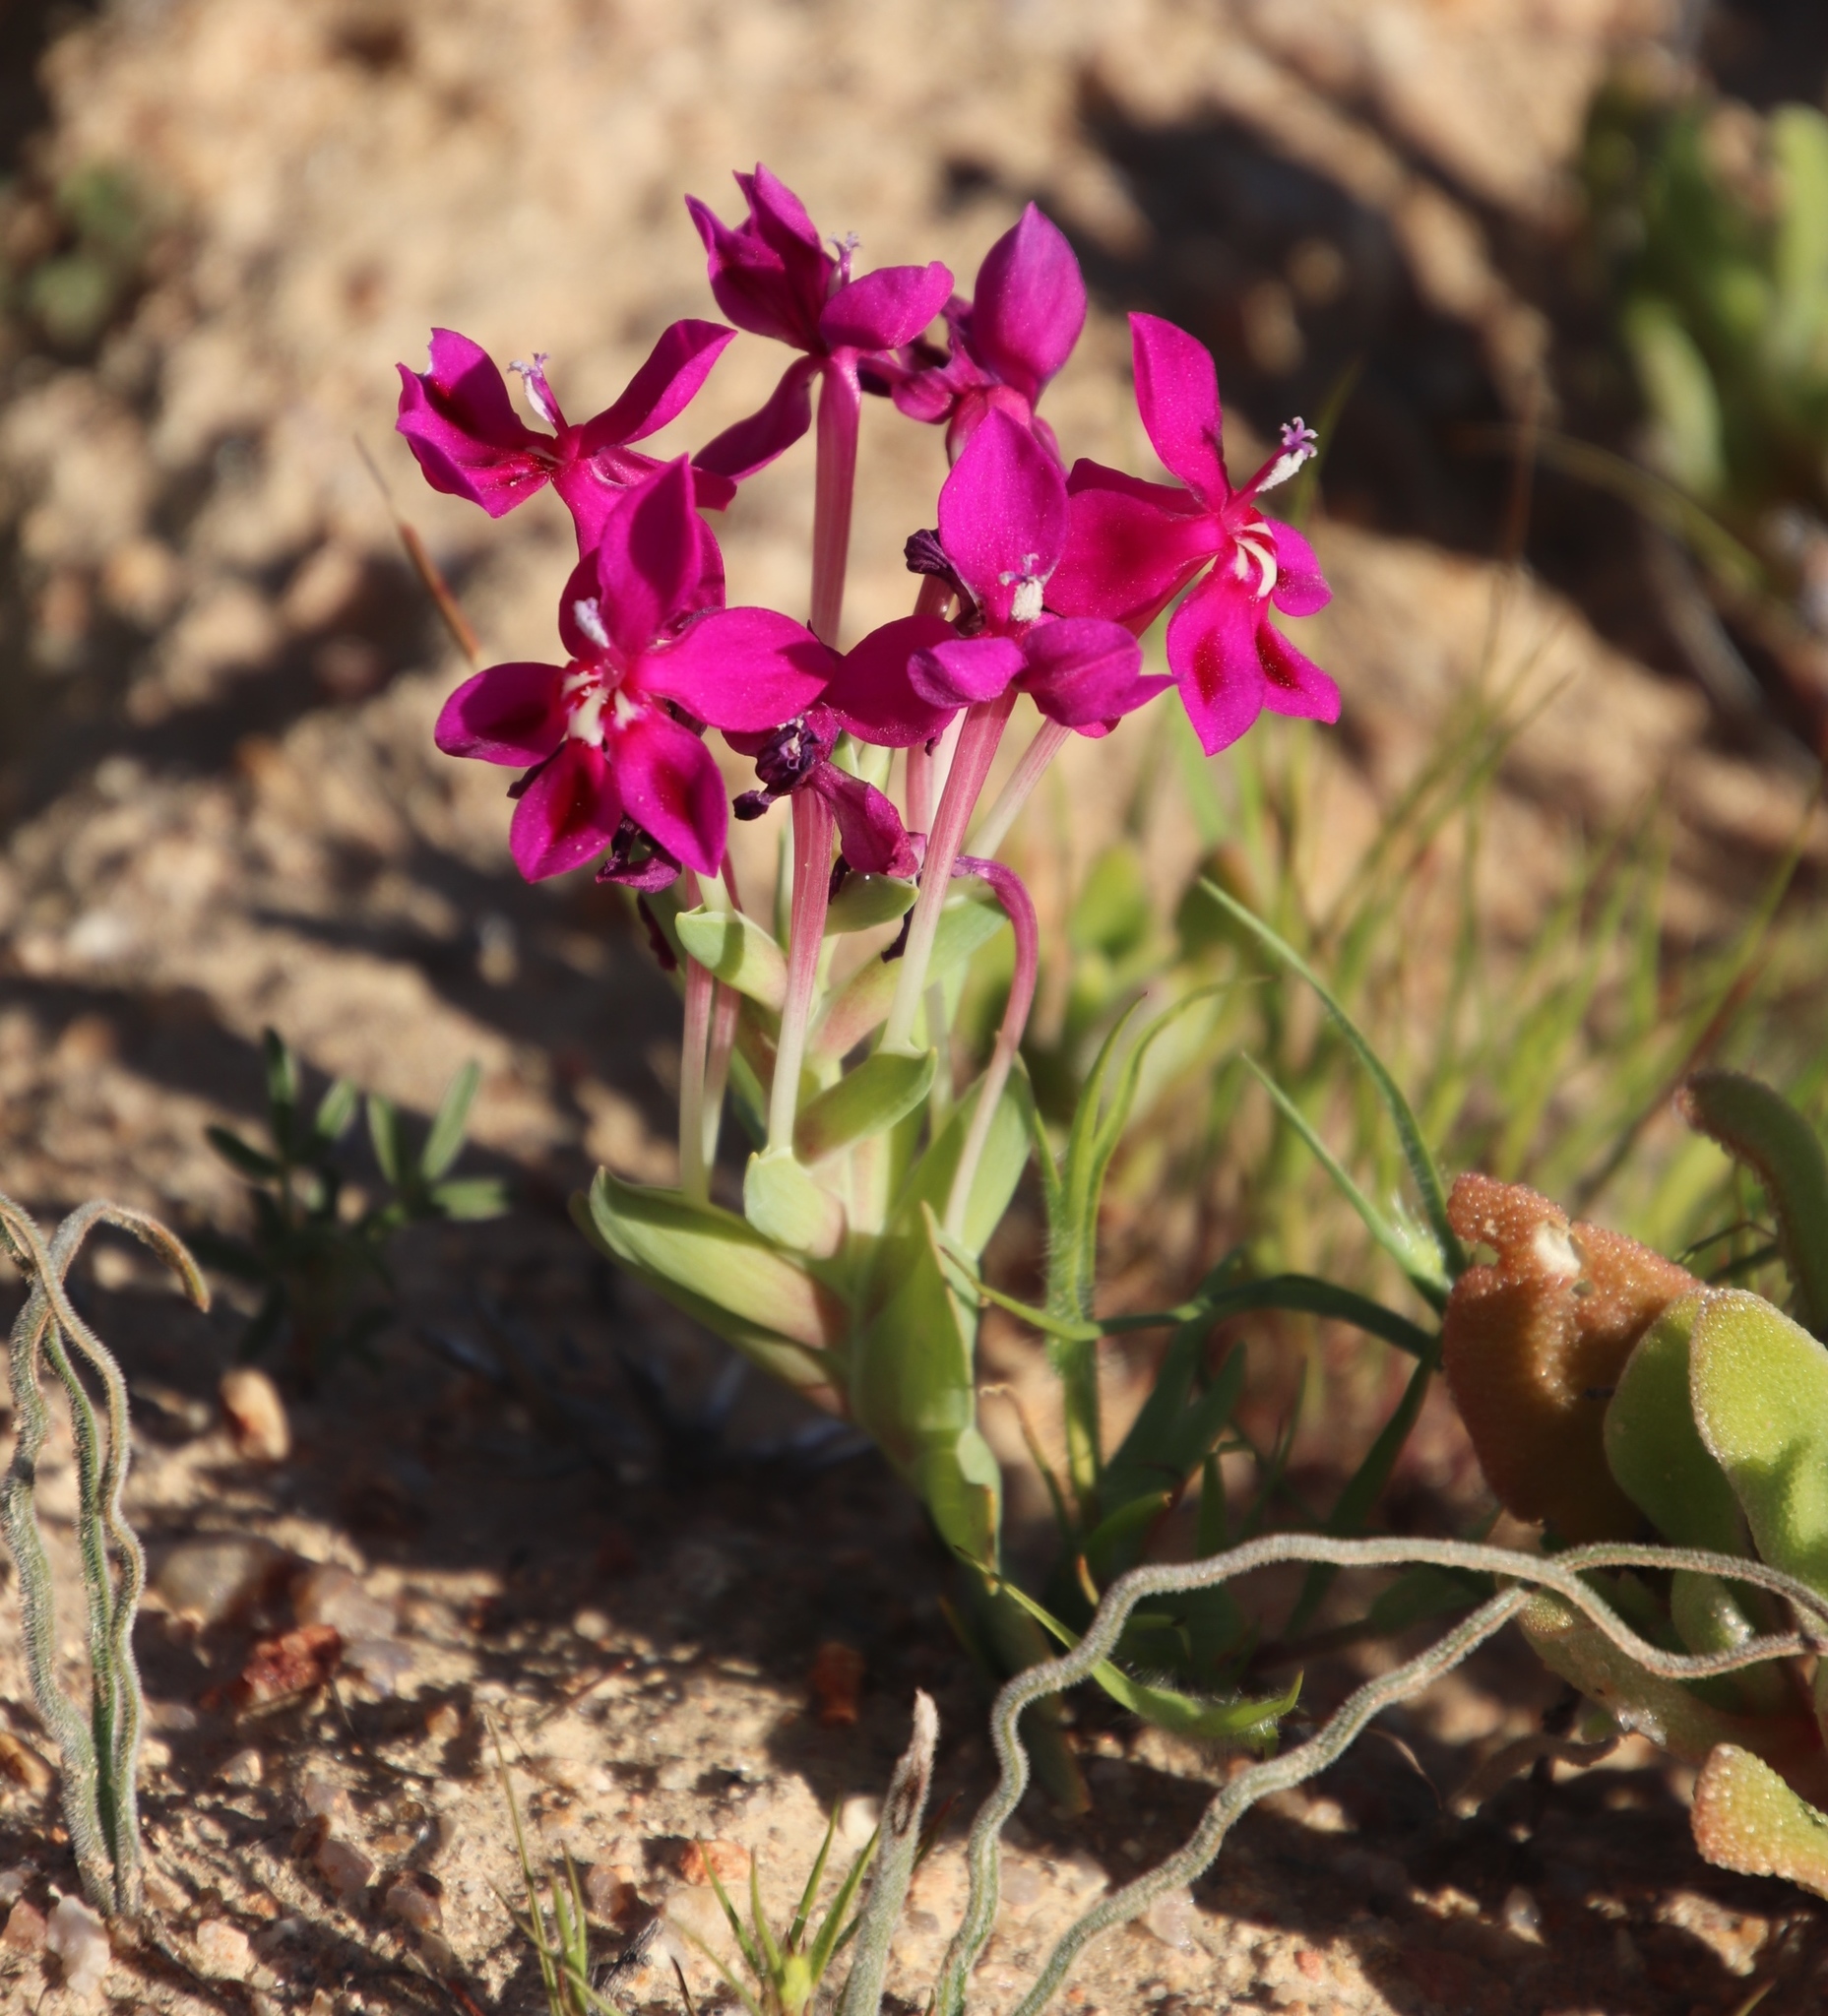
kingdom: Plantae
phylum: Tracheophyta
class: Liliopsida
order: Asparagales
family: Iridaceae
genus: Lapeirousia
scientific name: Lapeirousia silenoides
